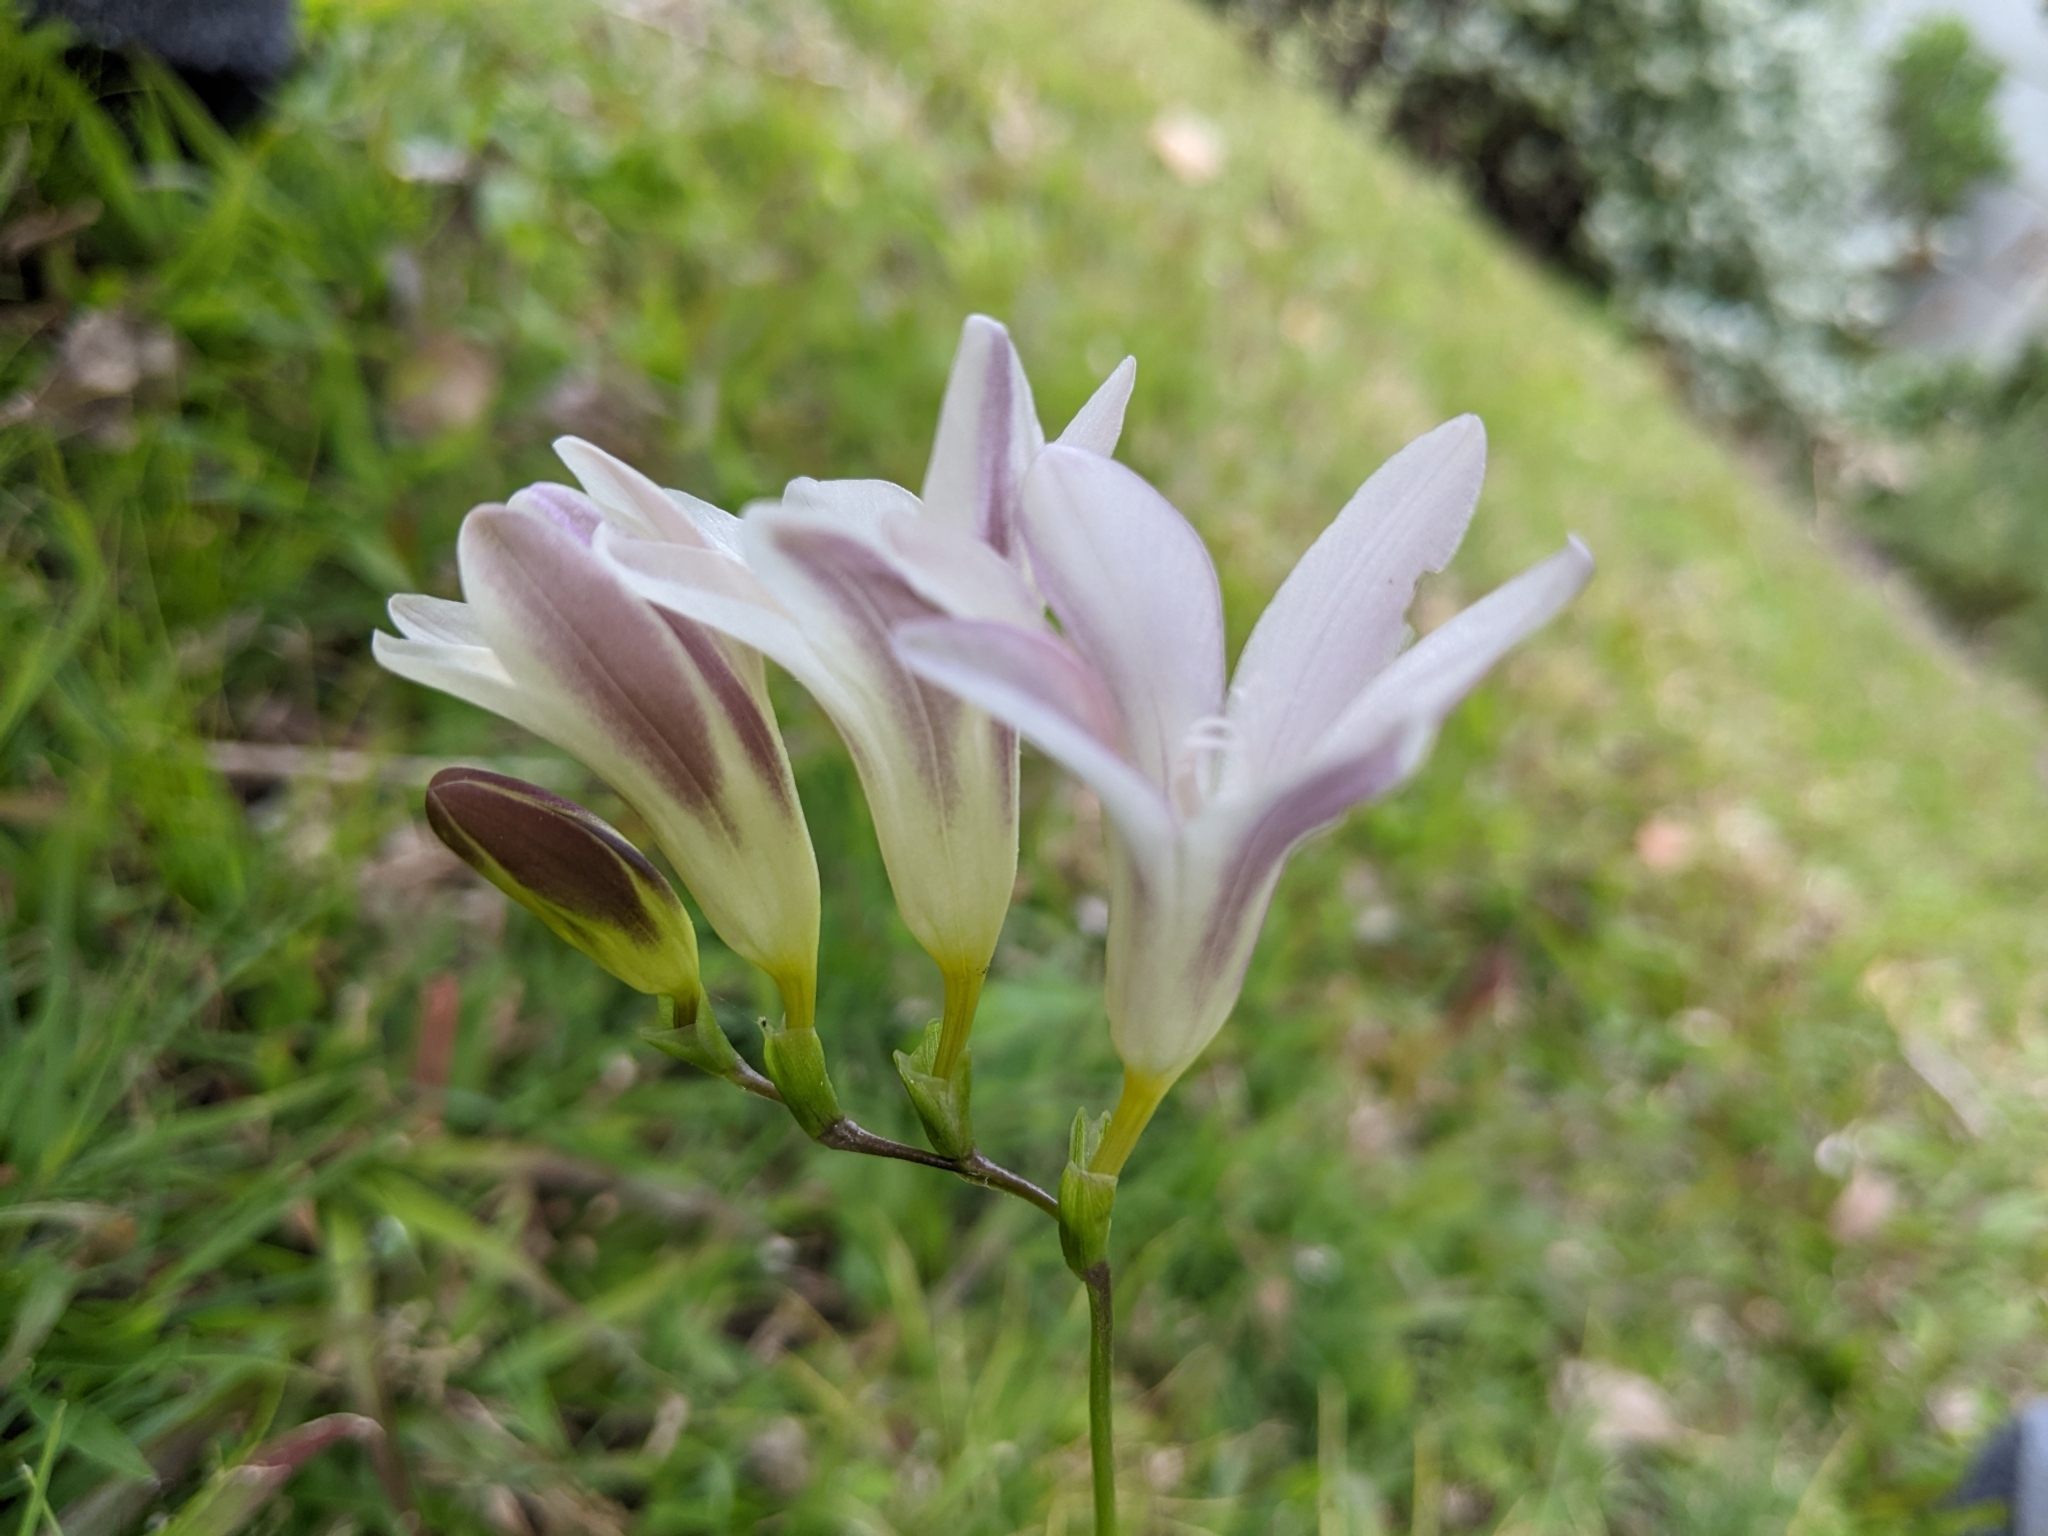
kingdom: Plantae
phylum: Tracheophyta
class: Liliopsida
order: Asparagales
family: Iridaceae
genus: Freesia
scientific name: Freesia leichtlinii
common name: Freesia
